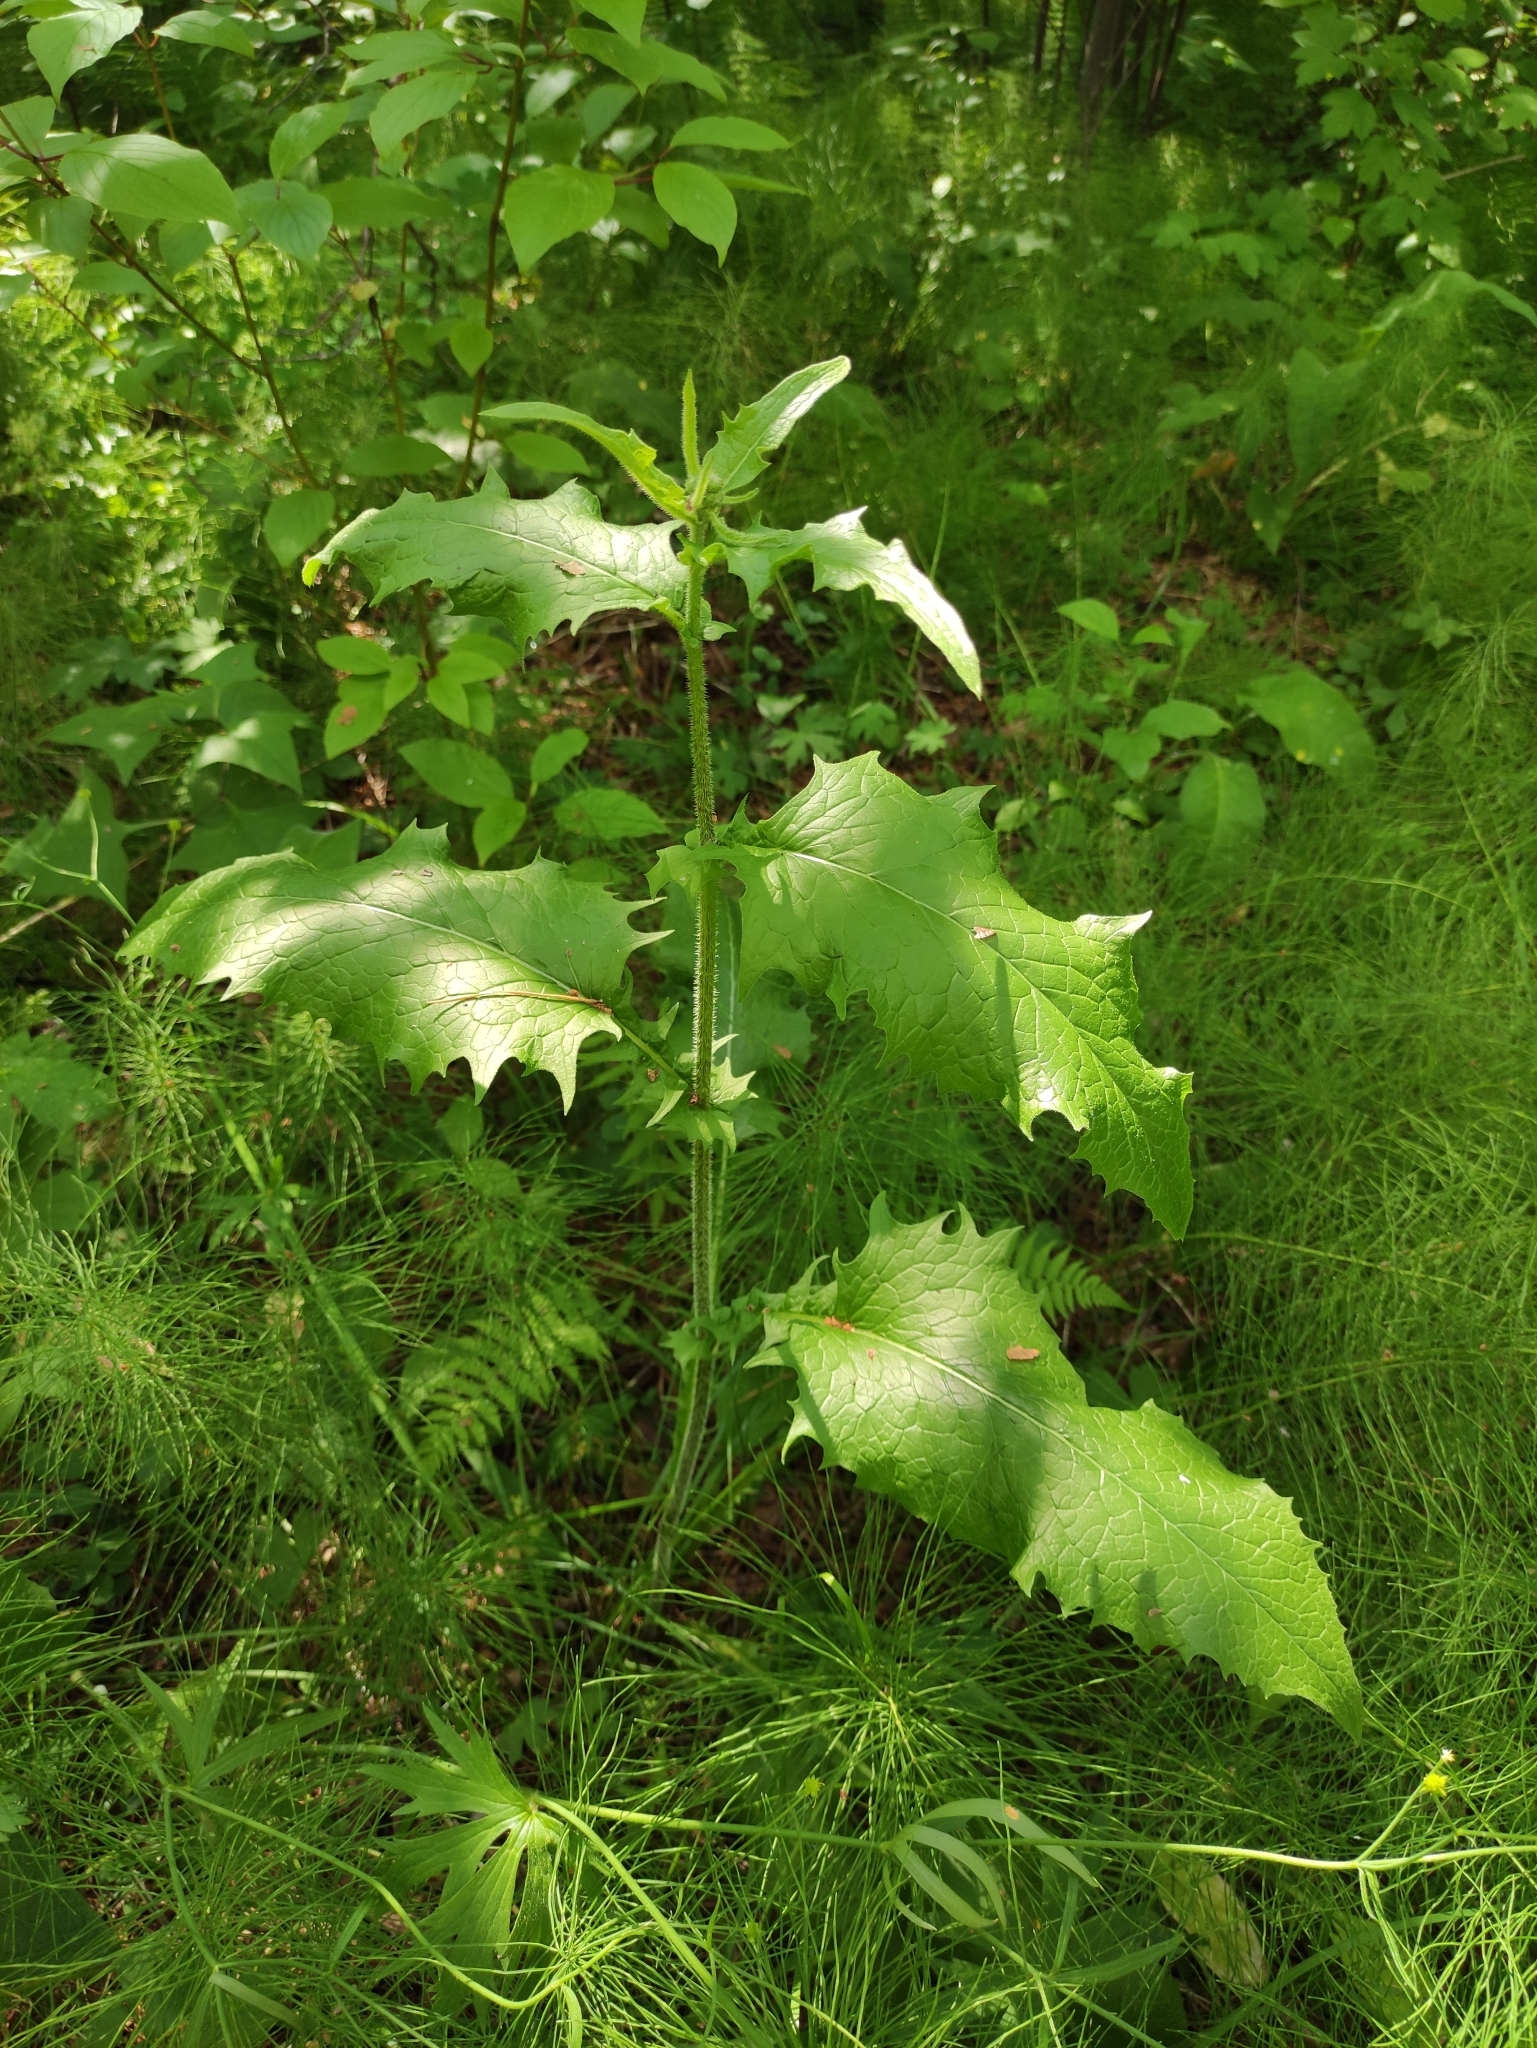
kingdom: Plantae
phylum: Tracheophyta
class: Magnoliopsida
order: Asterales
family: Asteraceae
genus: Crepis
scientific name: Crepis sibirica
